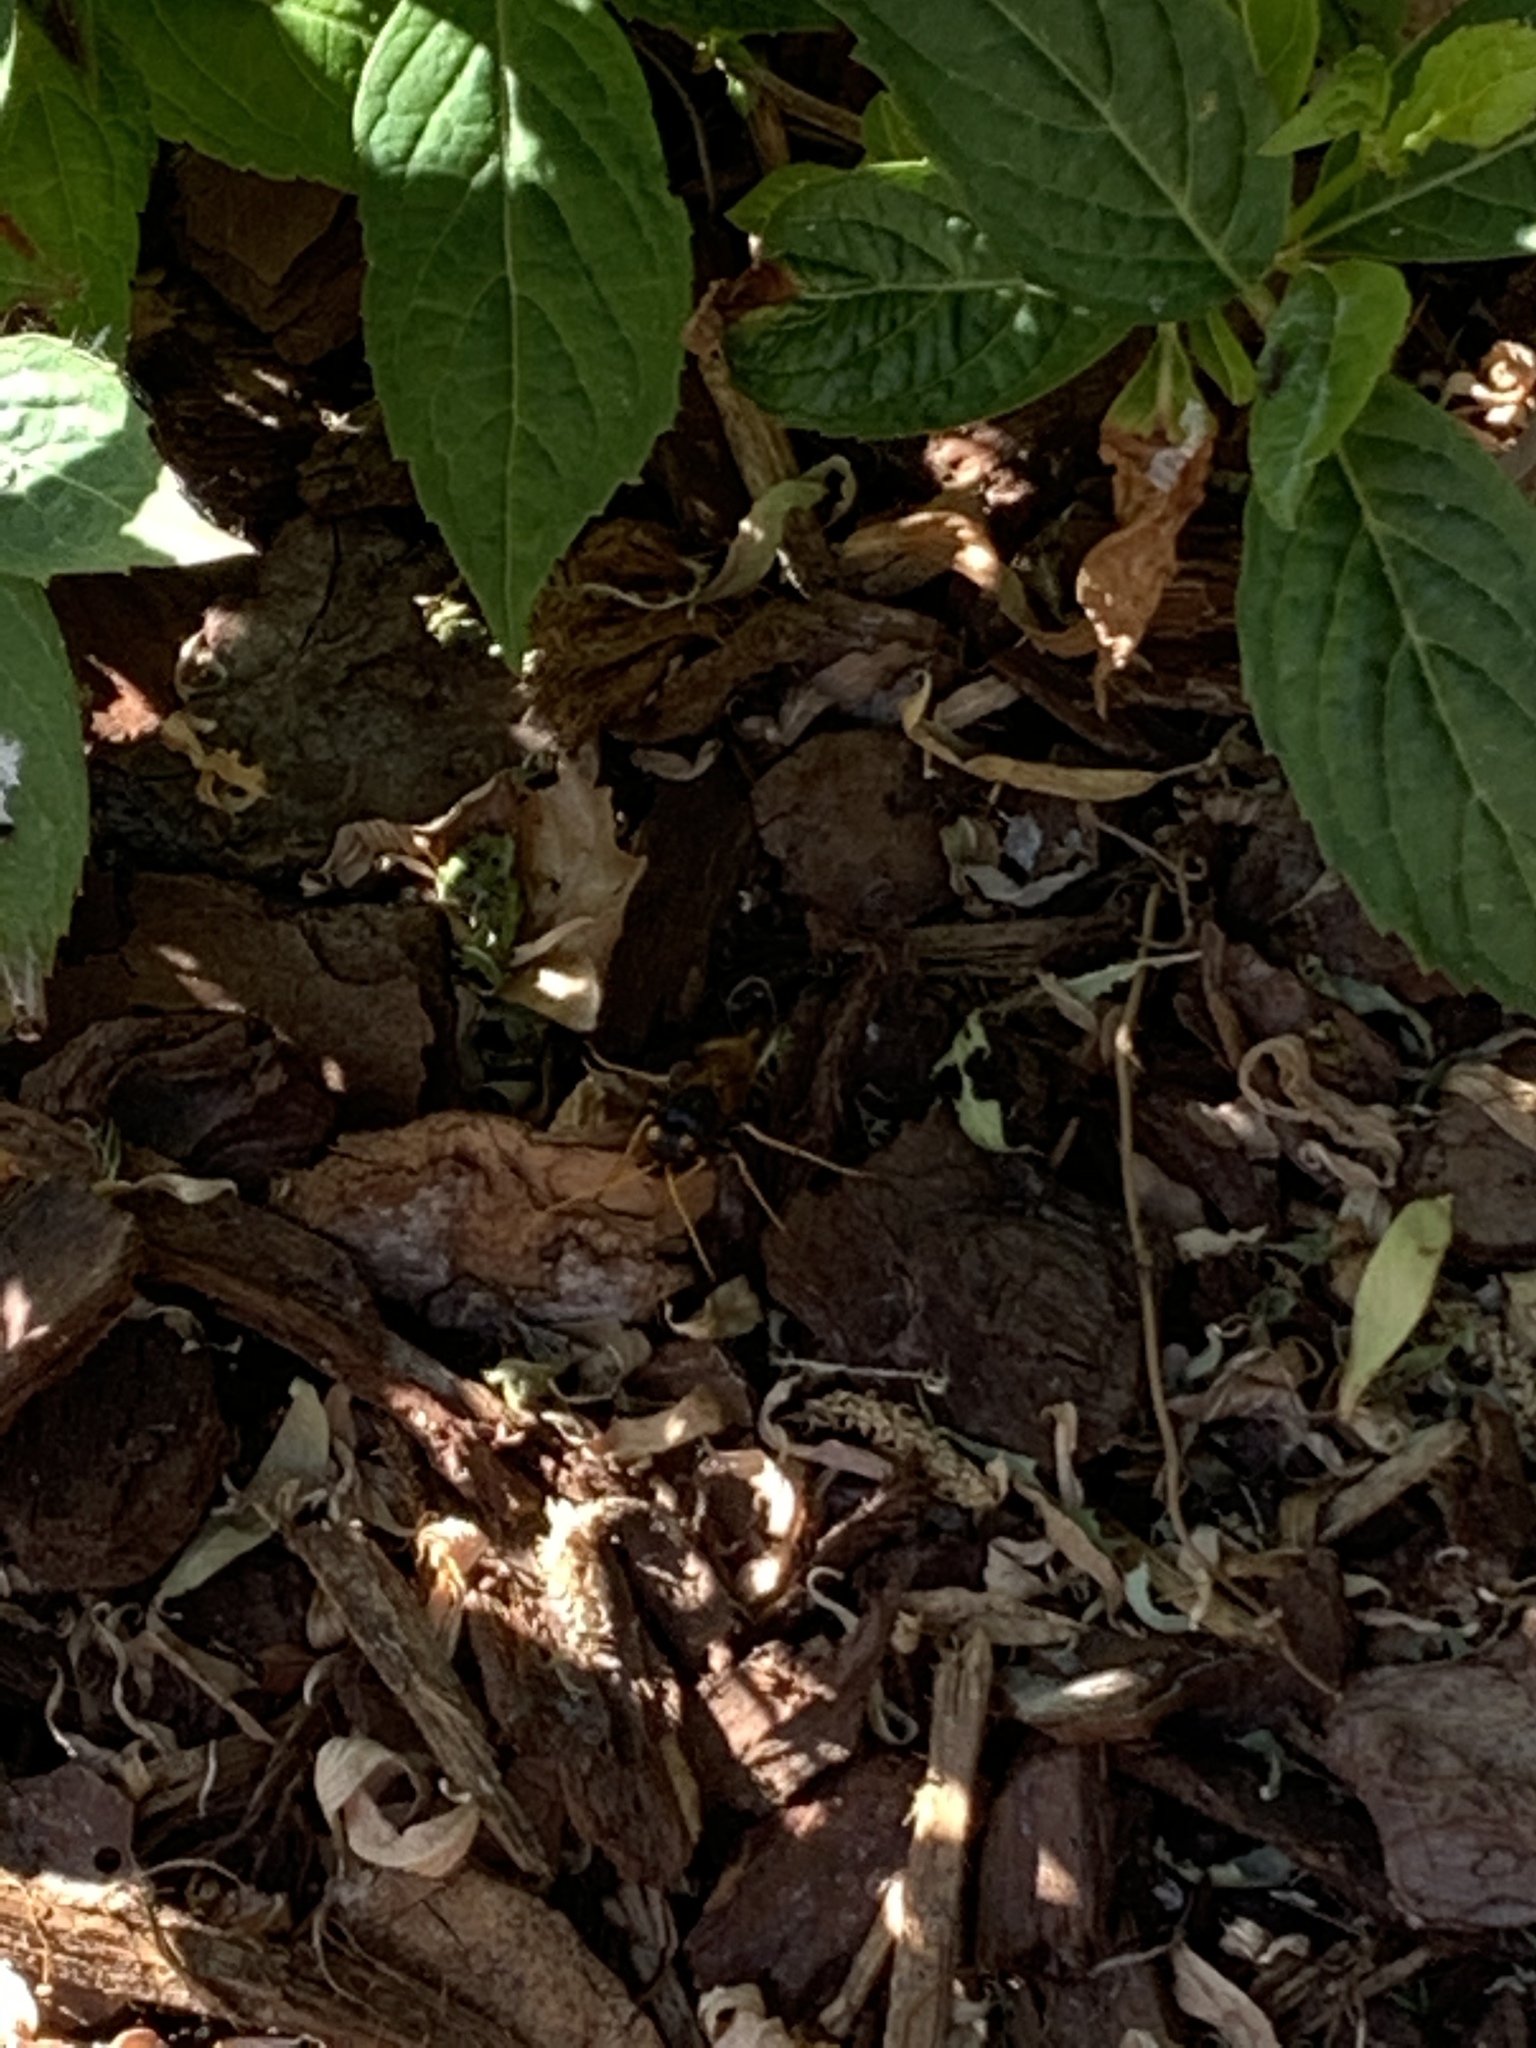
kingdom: Animalia
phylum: Arthropoda
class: Insecta
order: Hymenoptera
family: Siricidae
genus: Urocerus
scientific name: Urocerus gigas
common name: Giant woodwasp
